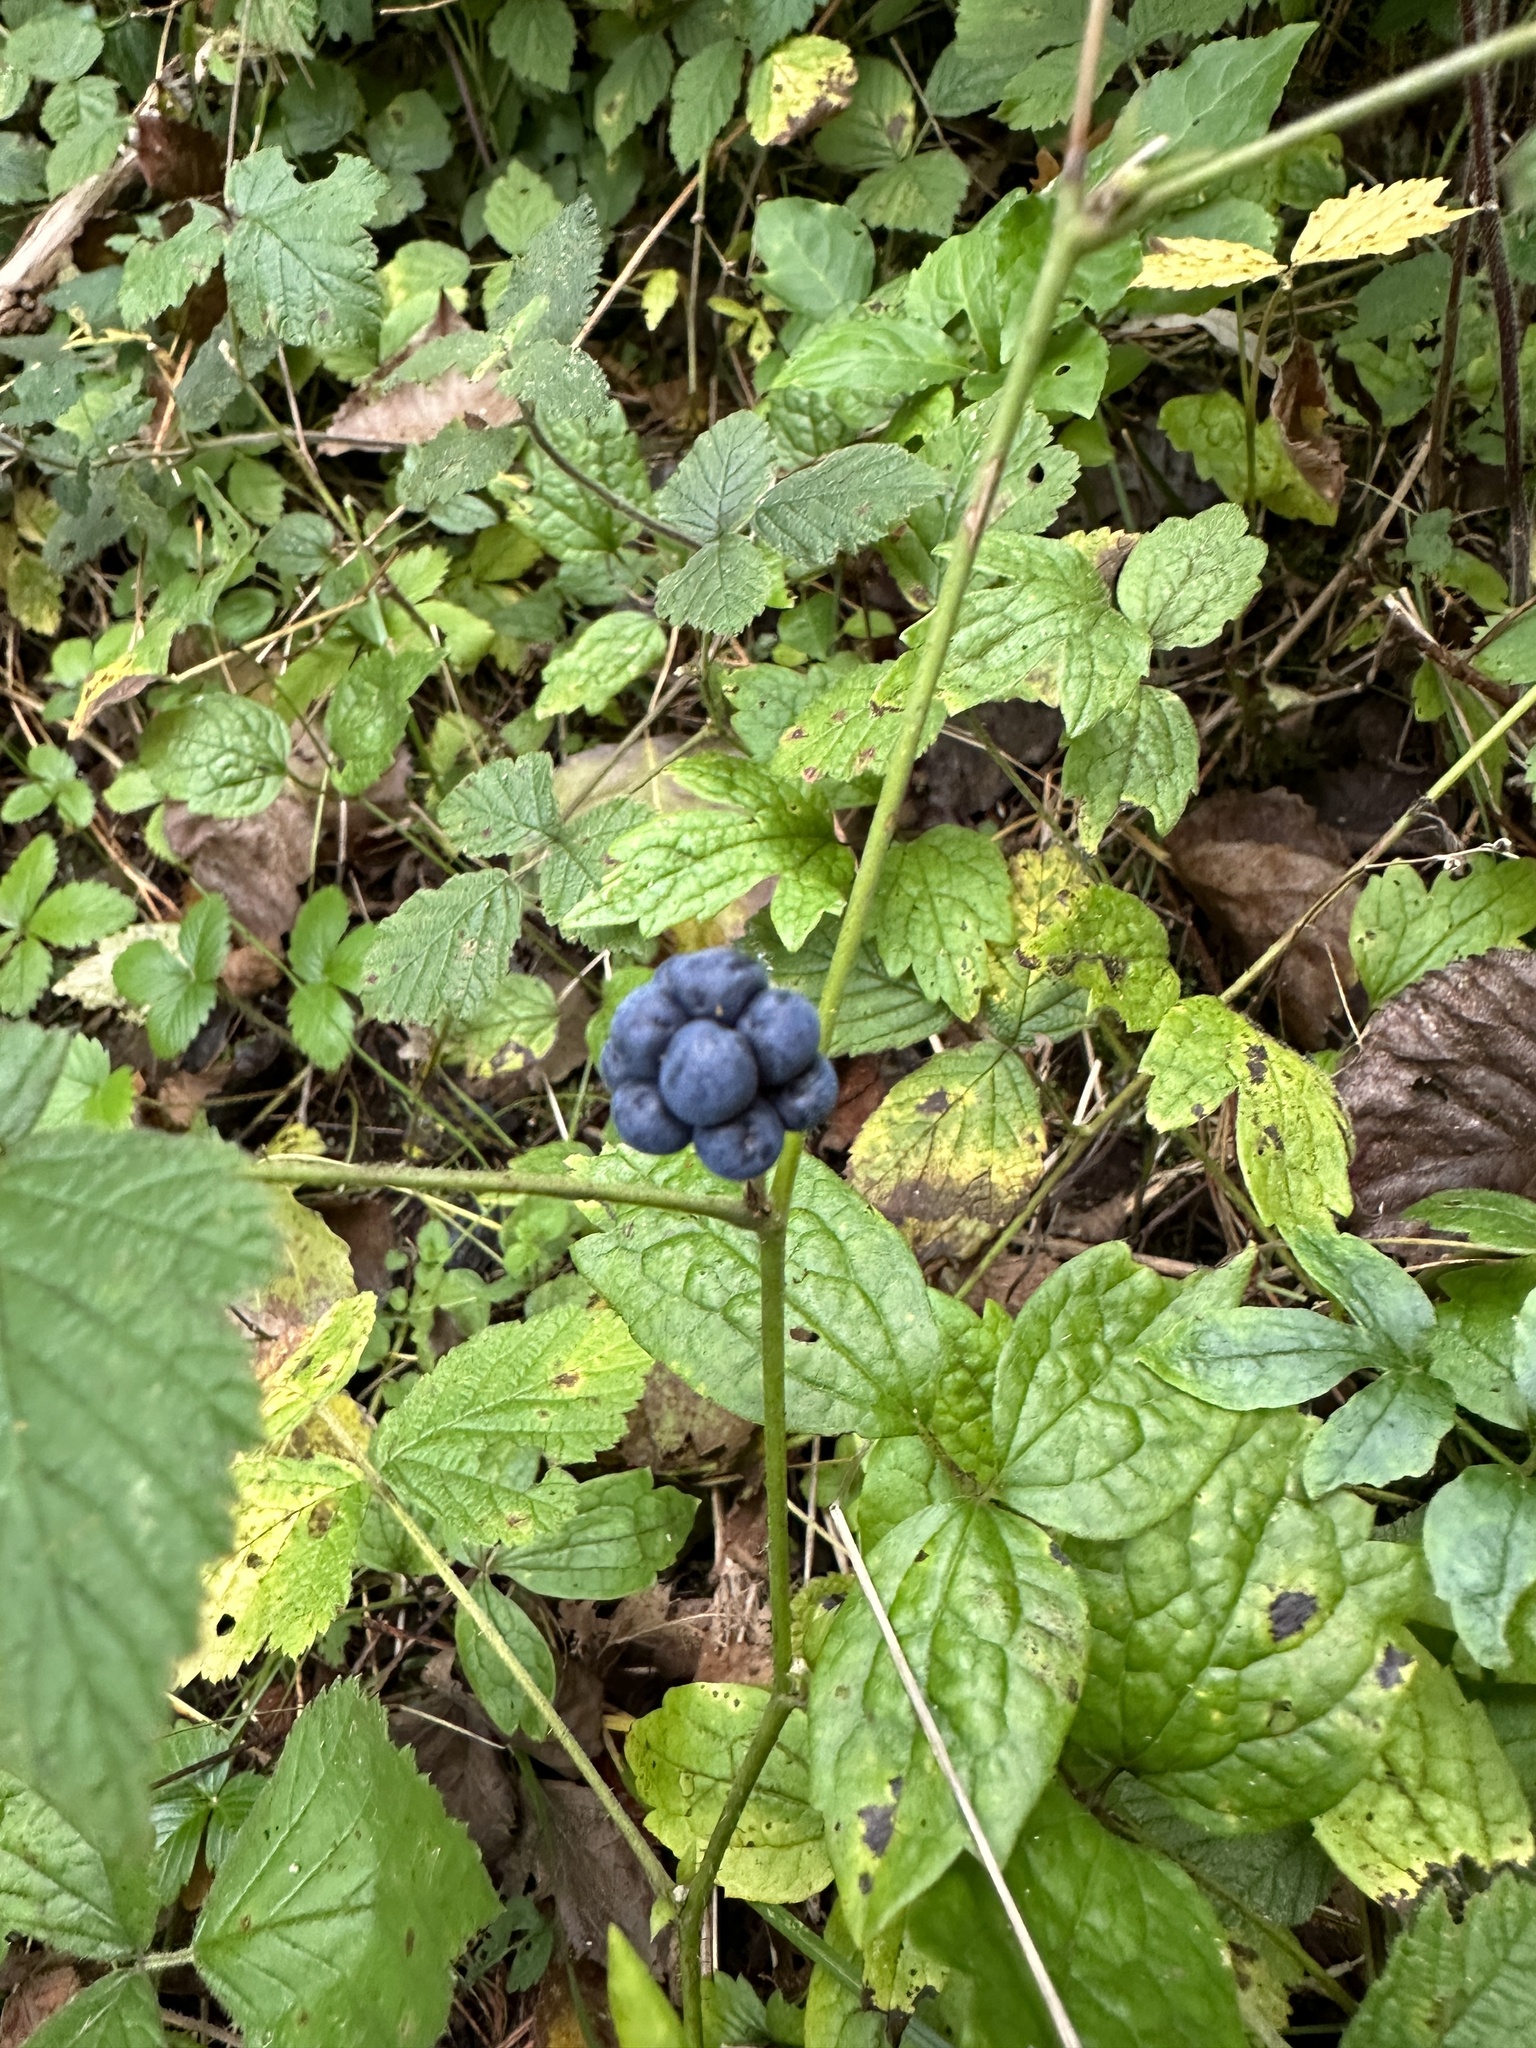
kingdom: Plantae
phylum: Tracheophyta
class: Magnoliopsida
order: Rosales
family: Rosaceae
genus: Rubus
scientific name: Rubus caesius
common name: Dewberry
